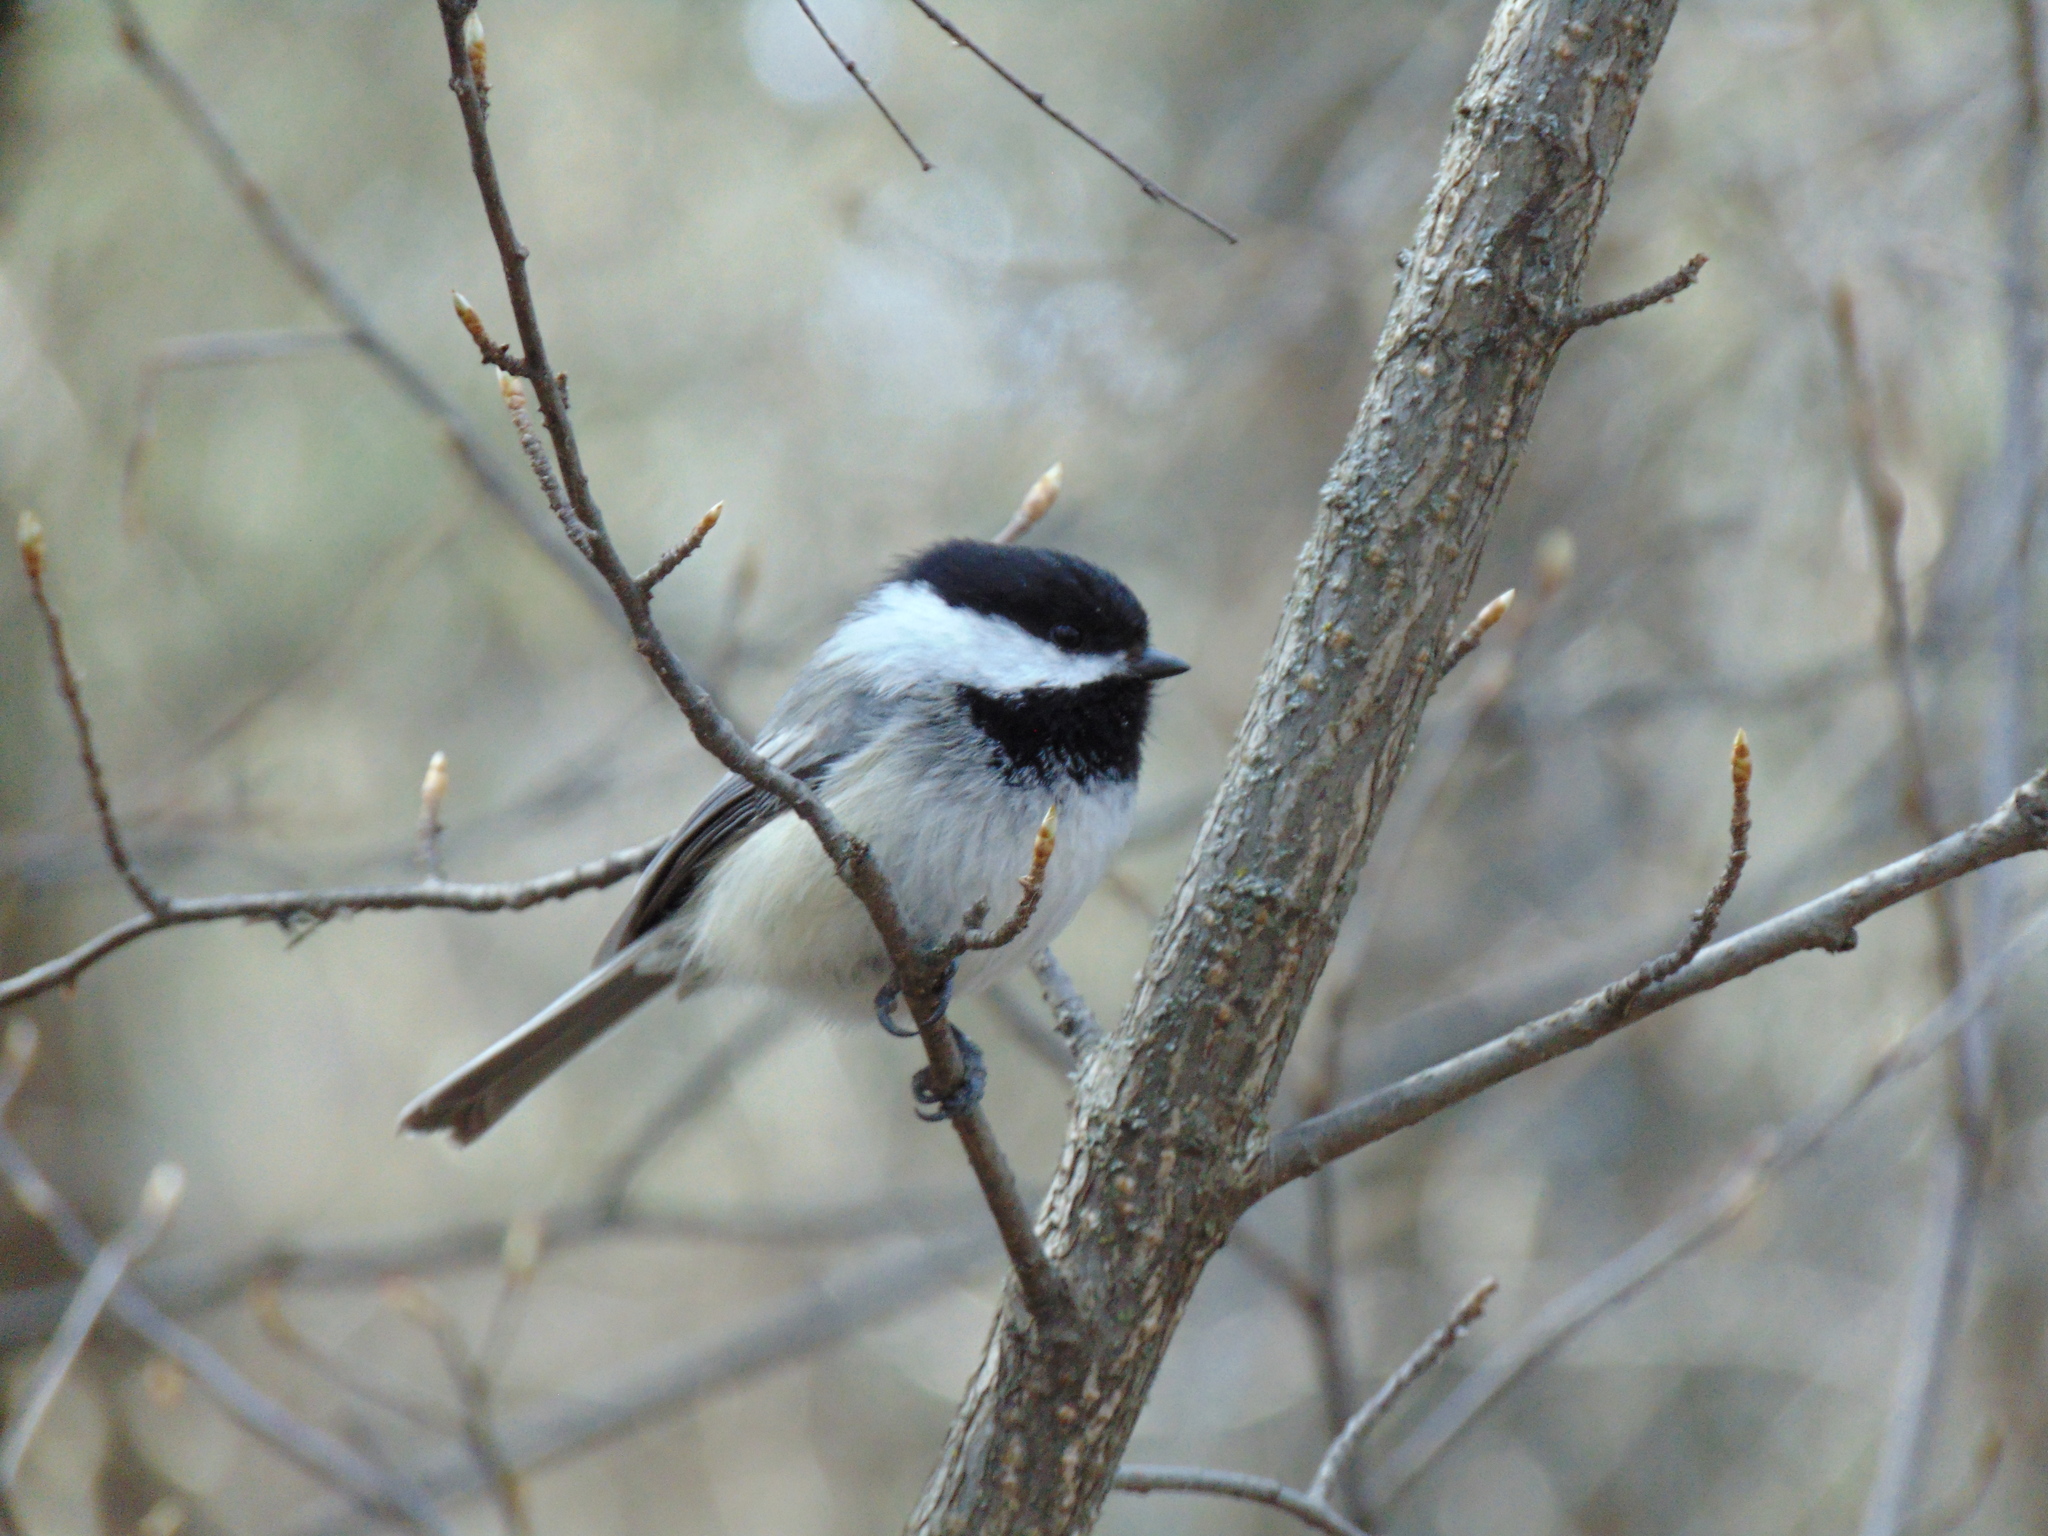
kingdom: Animalia
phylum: Chordata
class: Aves
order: Passeriformes
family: Paridae
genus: Poecile
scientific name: Poecile atricapillus
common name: Black-capped chickadee
